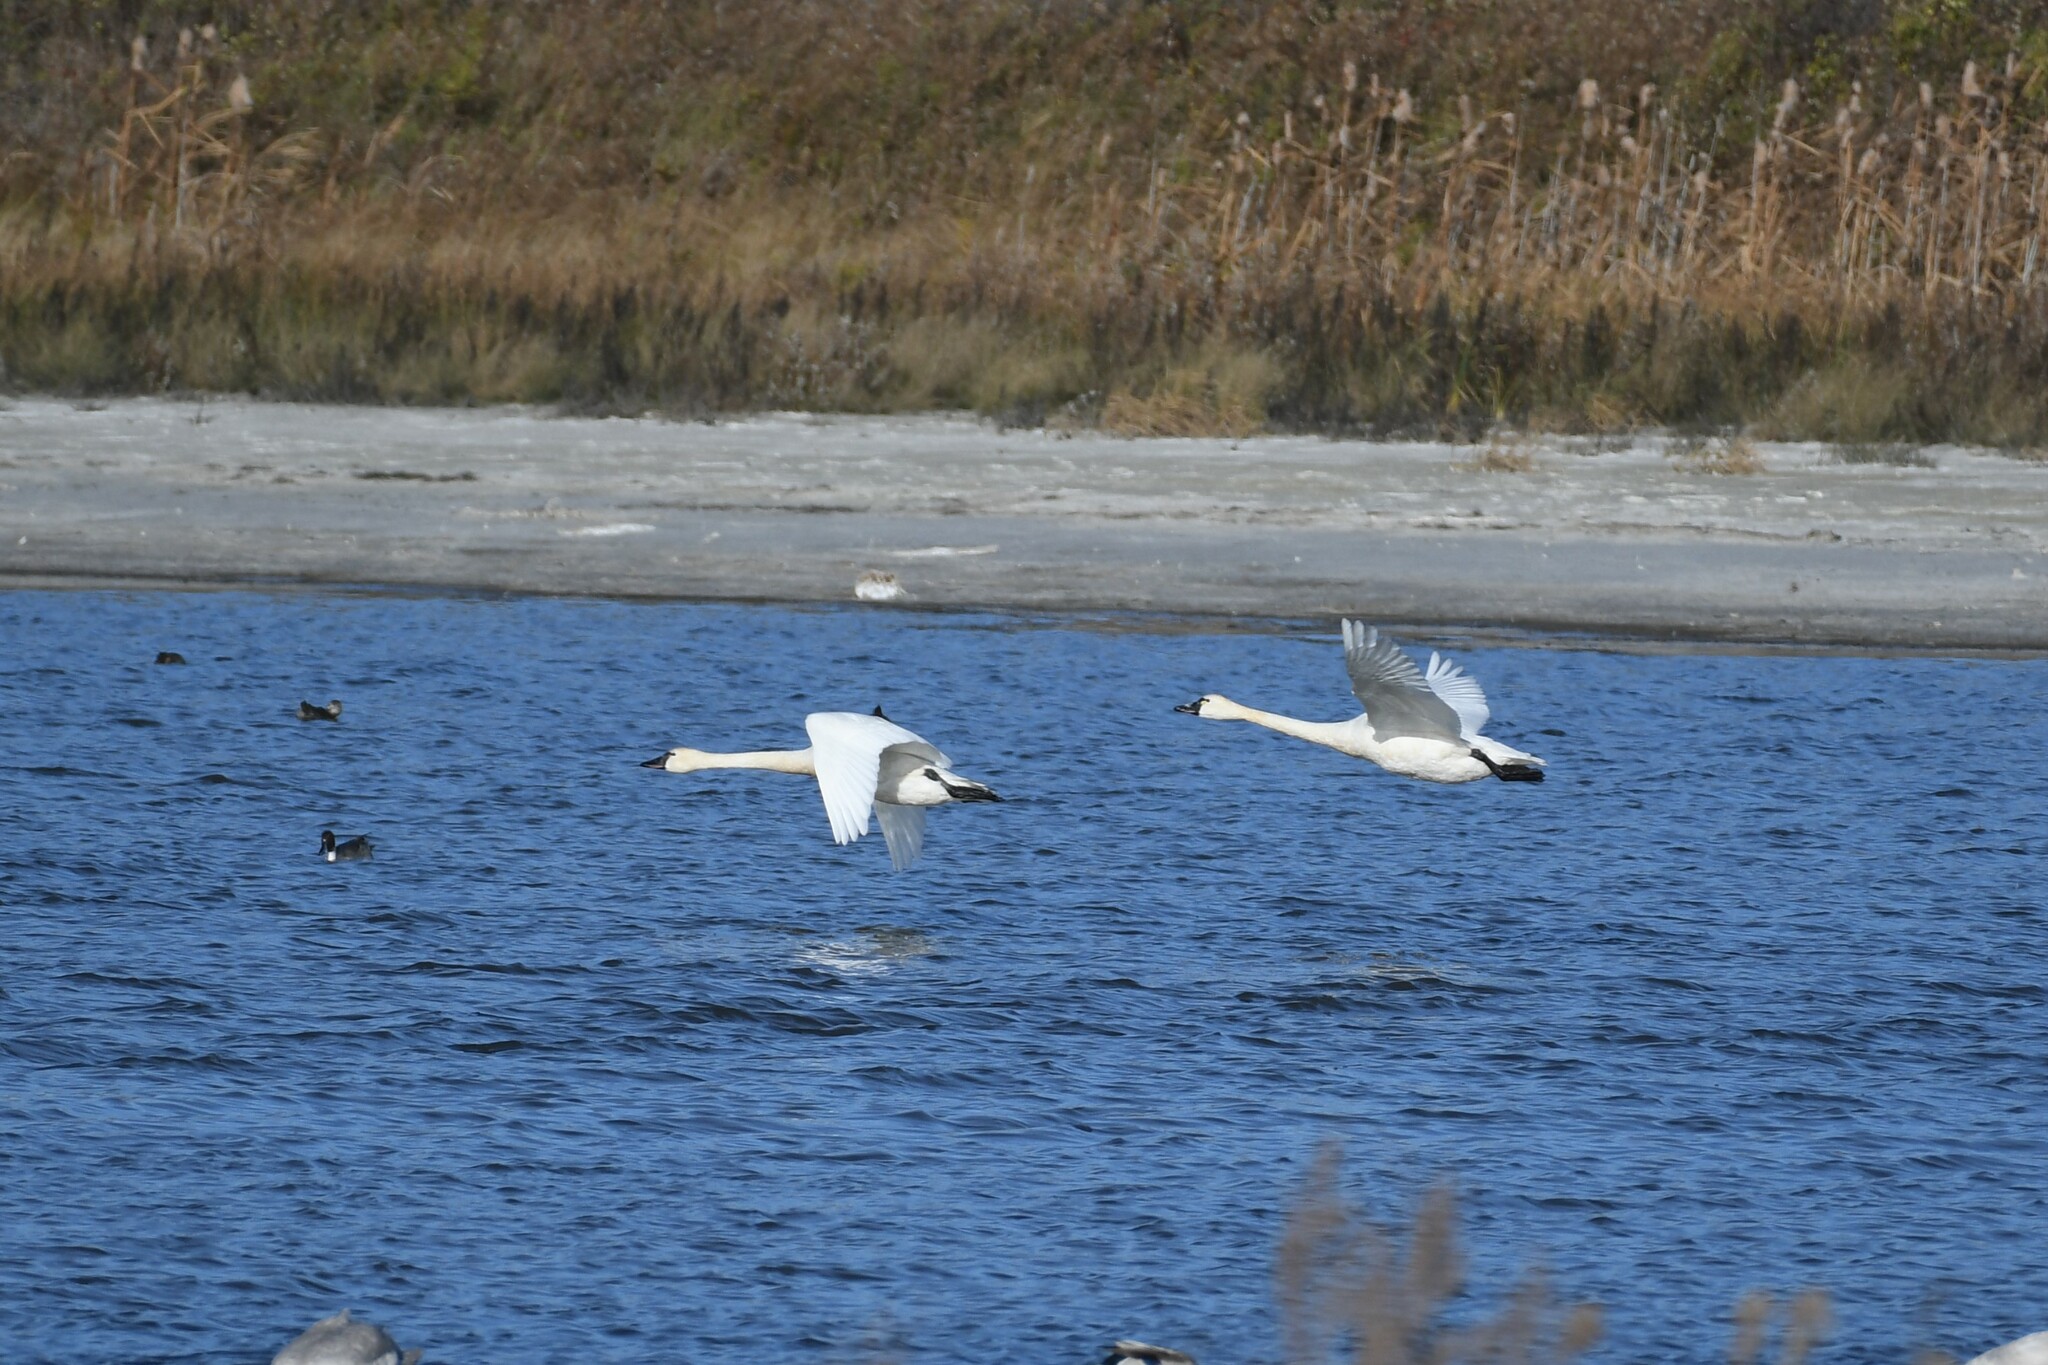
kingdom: Animalia
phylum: Chordata
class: Aves
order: Anseriformes
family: Anatidae
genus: Cygnus
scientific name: Cygnus columbianus
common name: Tundra swan
